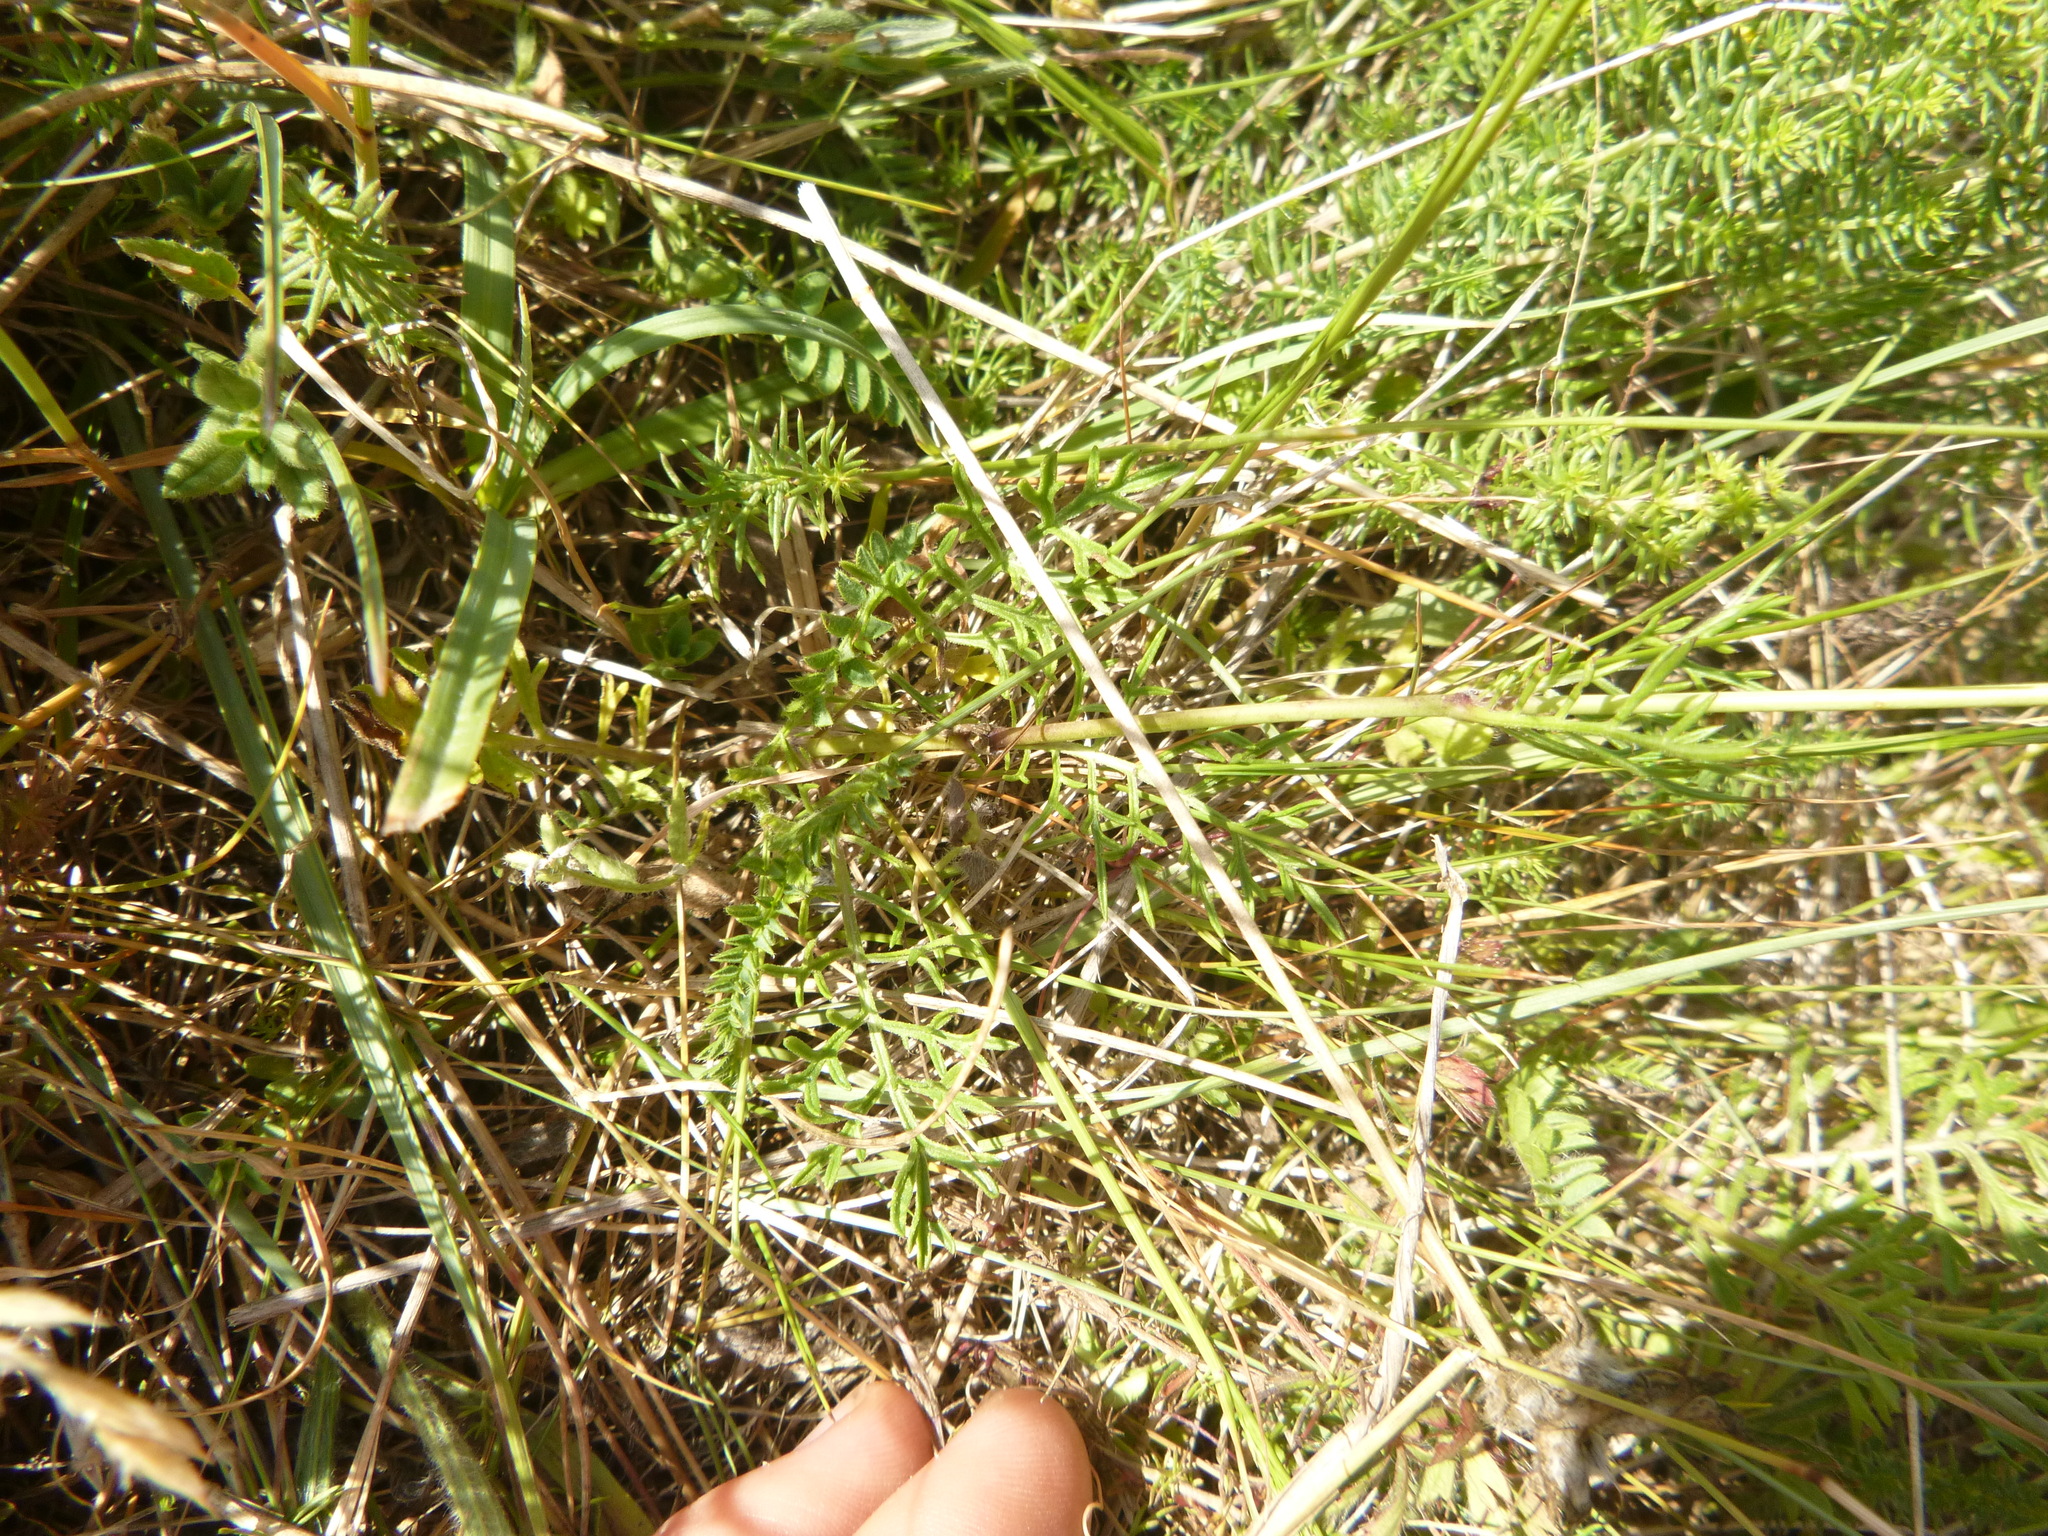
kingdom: Plantae
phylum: Tracheophyta
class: Magnoliopsida
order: Dipsacales
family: Caprifoliaceae
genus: Scabiosa
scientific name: Scabiosa columbaria
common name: Small scabious
